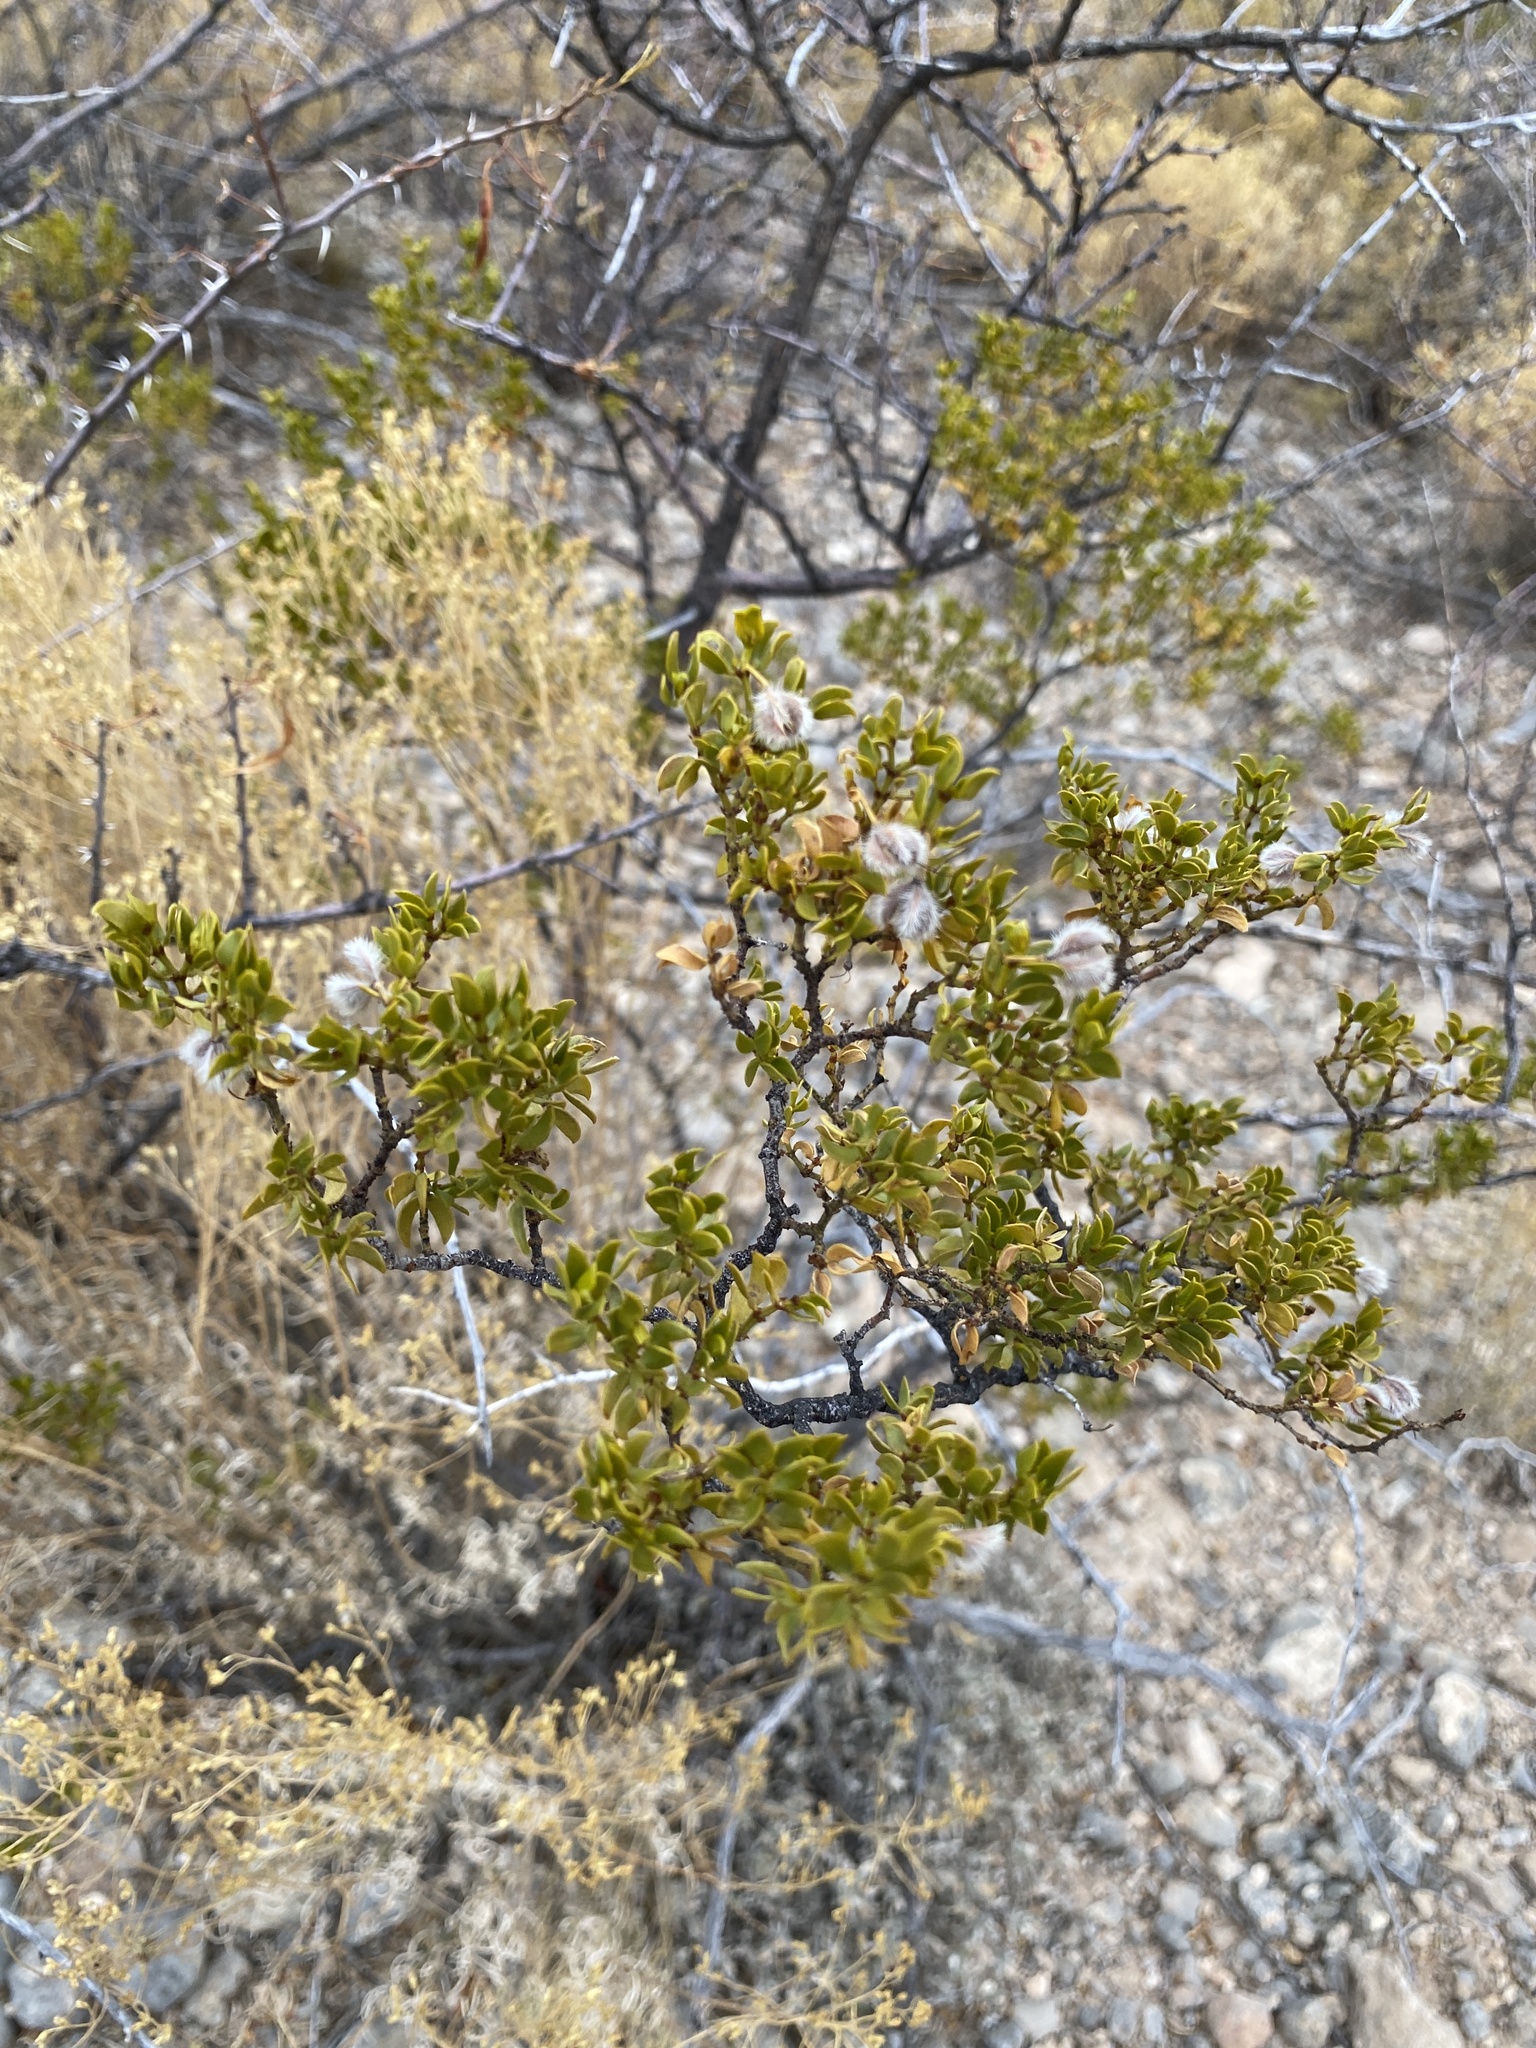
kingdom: Plantae
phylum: Tracheophyta
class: Magnoliopsida
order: Zygophyllales
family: Zygophyllaceae
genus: Larrea
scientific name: Larrea tridentata
